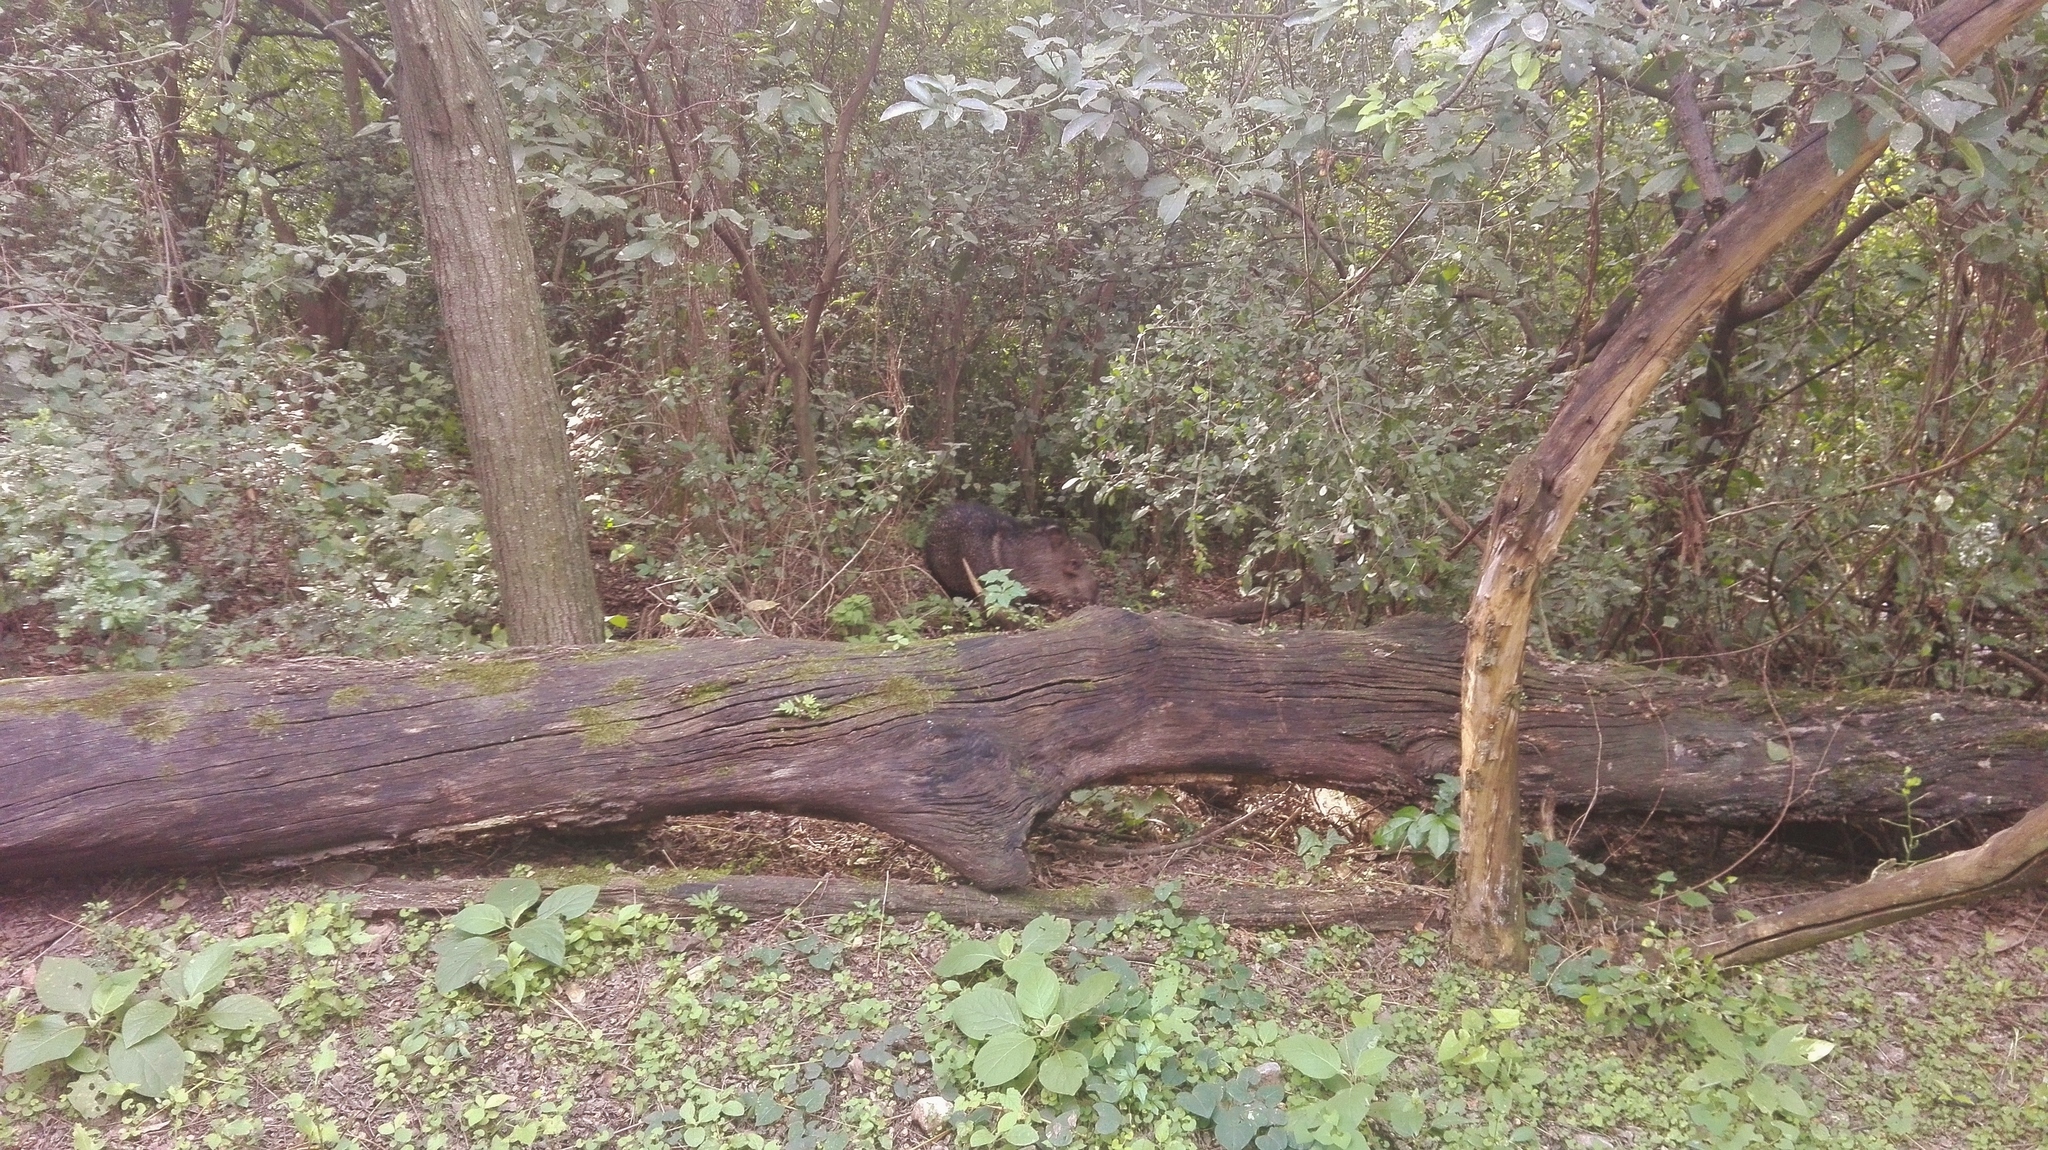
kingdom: Animalia
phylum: Chordata
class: Mammalia
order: Artiodactyla
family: Tayassuidae
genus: Pecari
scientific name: Pecari tajacu
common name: Collared peccary
